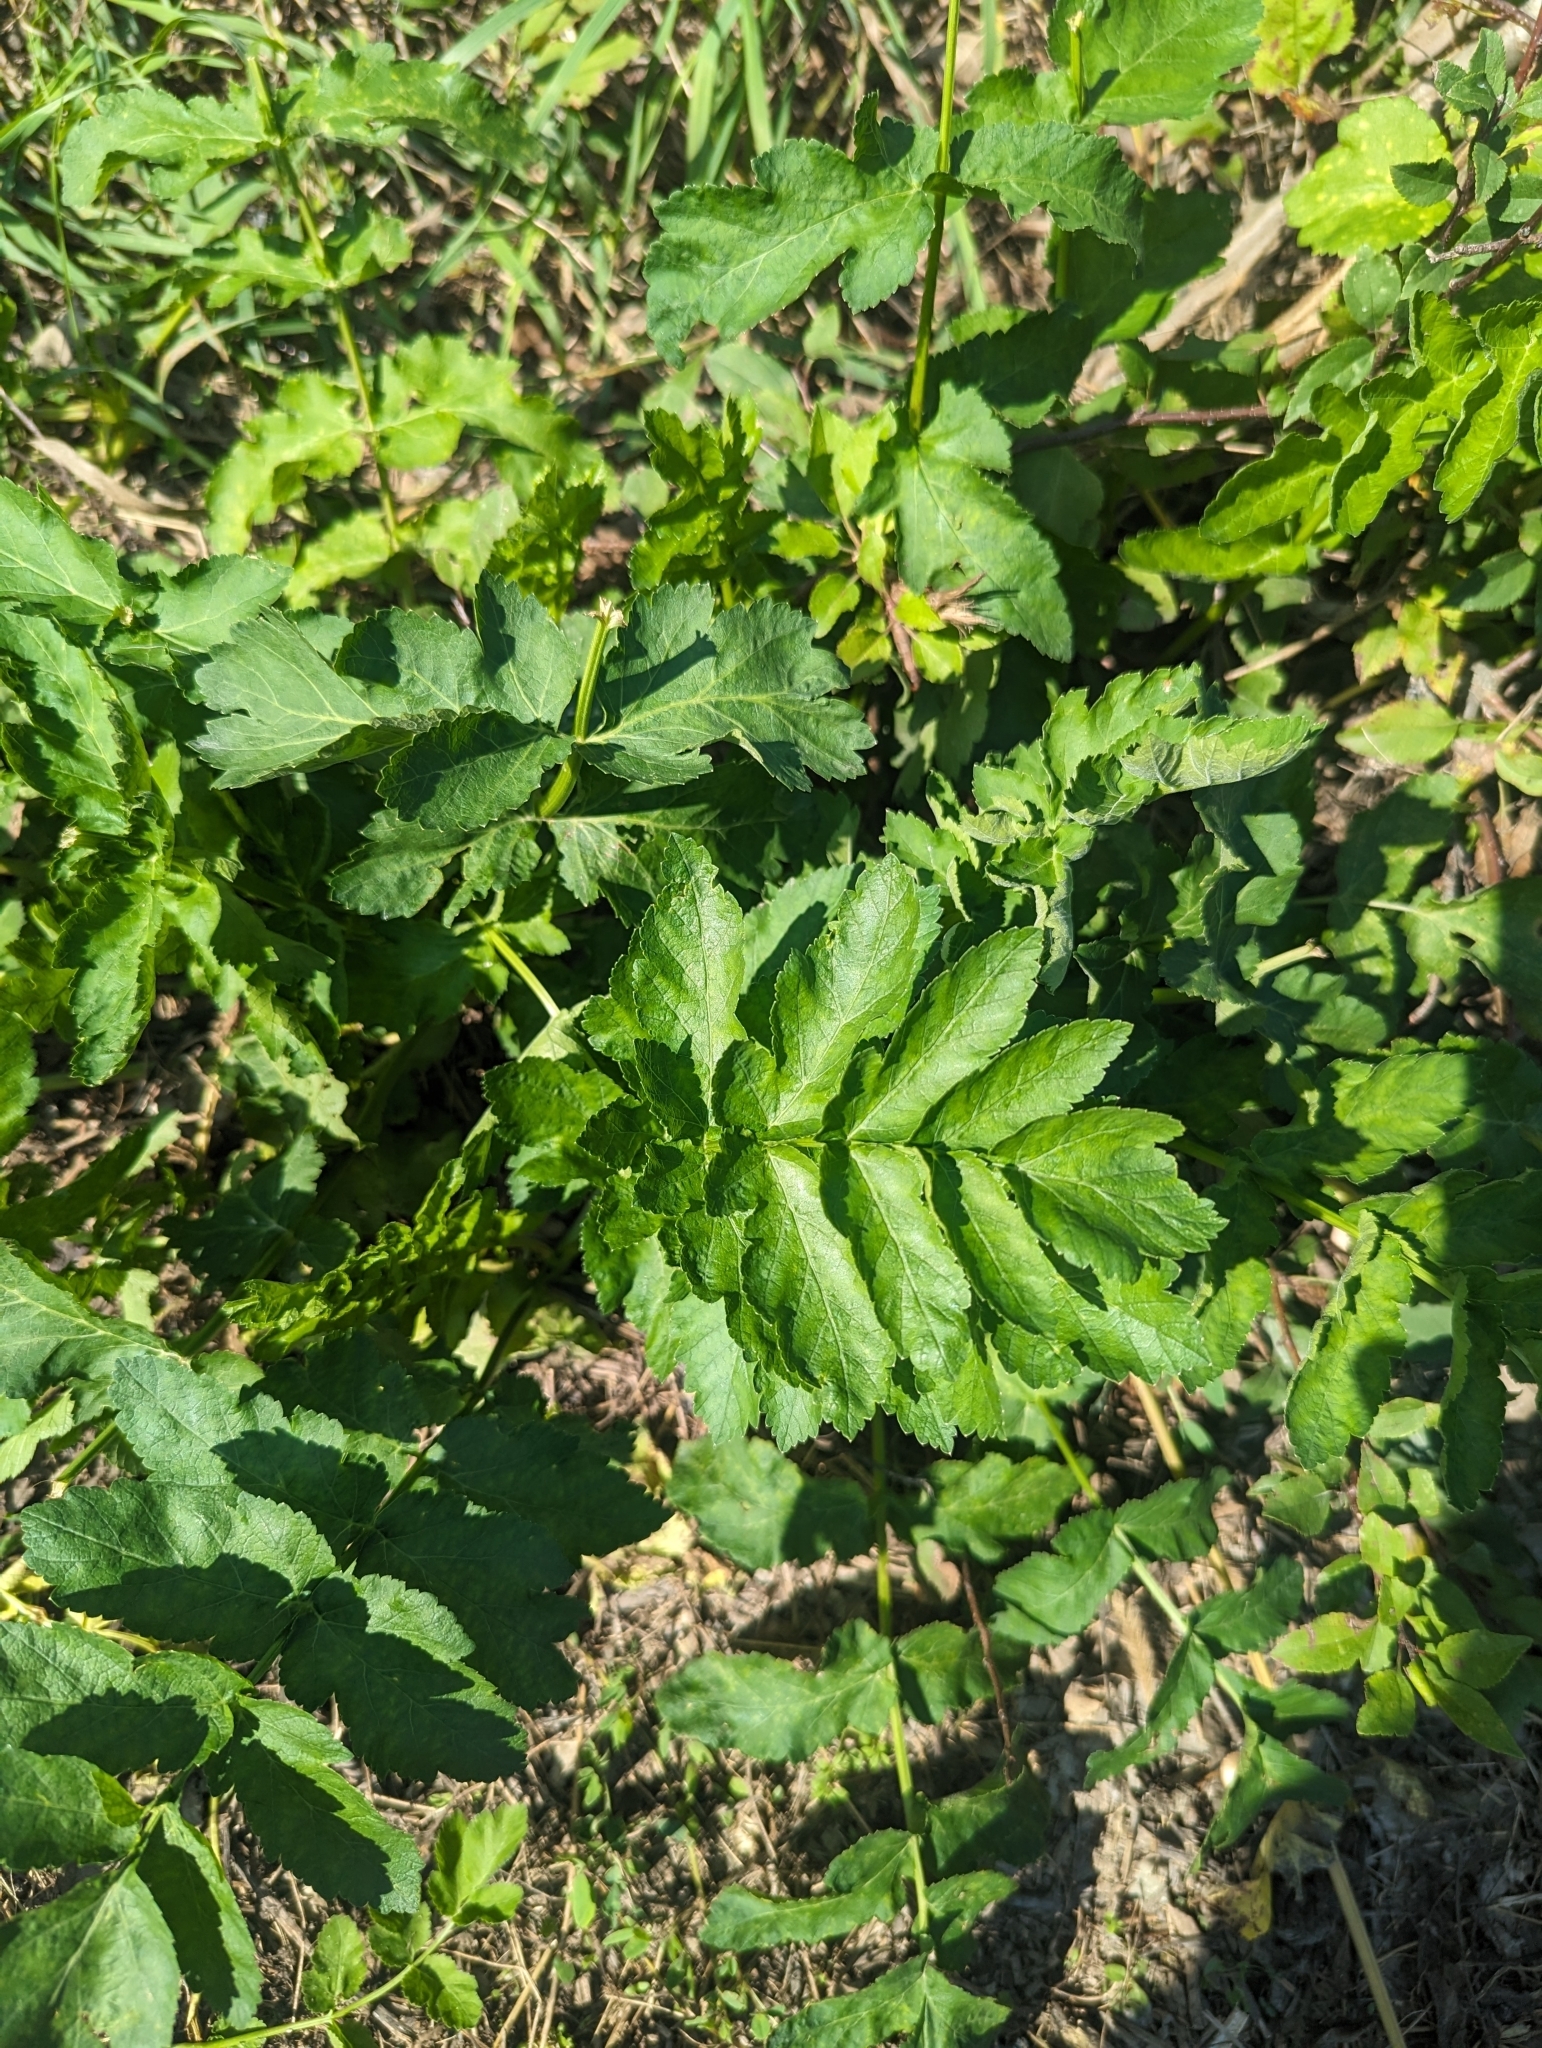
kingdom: Plantae
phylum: Tracheophyta
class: Magnoliopsida
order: Apiales
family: Apiaceae
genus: Pastinaca
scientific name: Pastinaca sativa
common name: Wild parsnip
